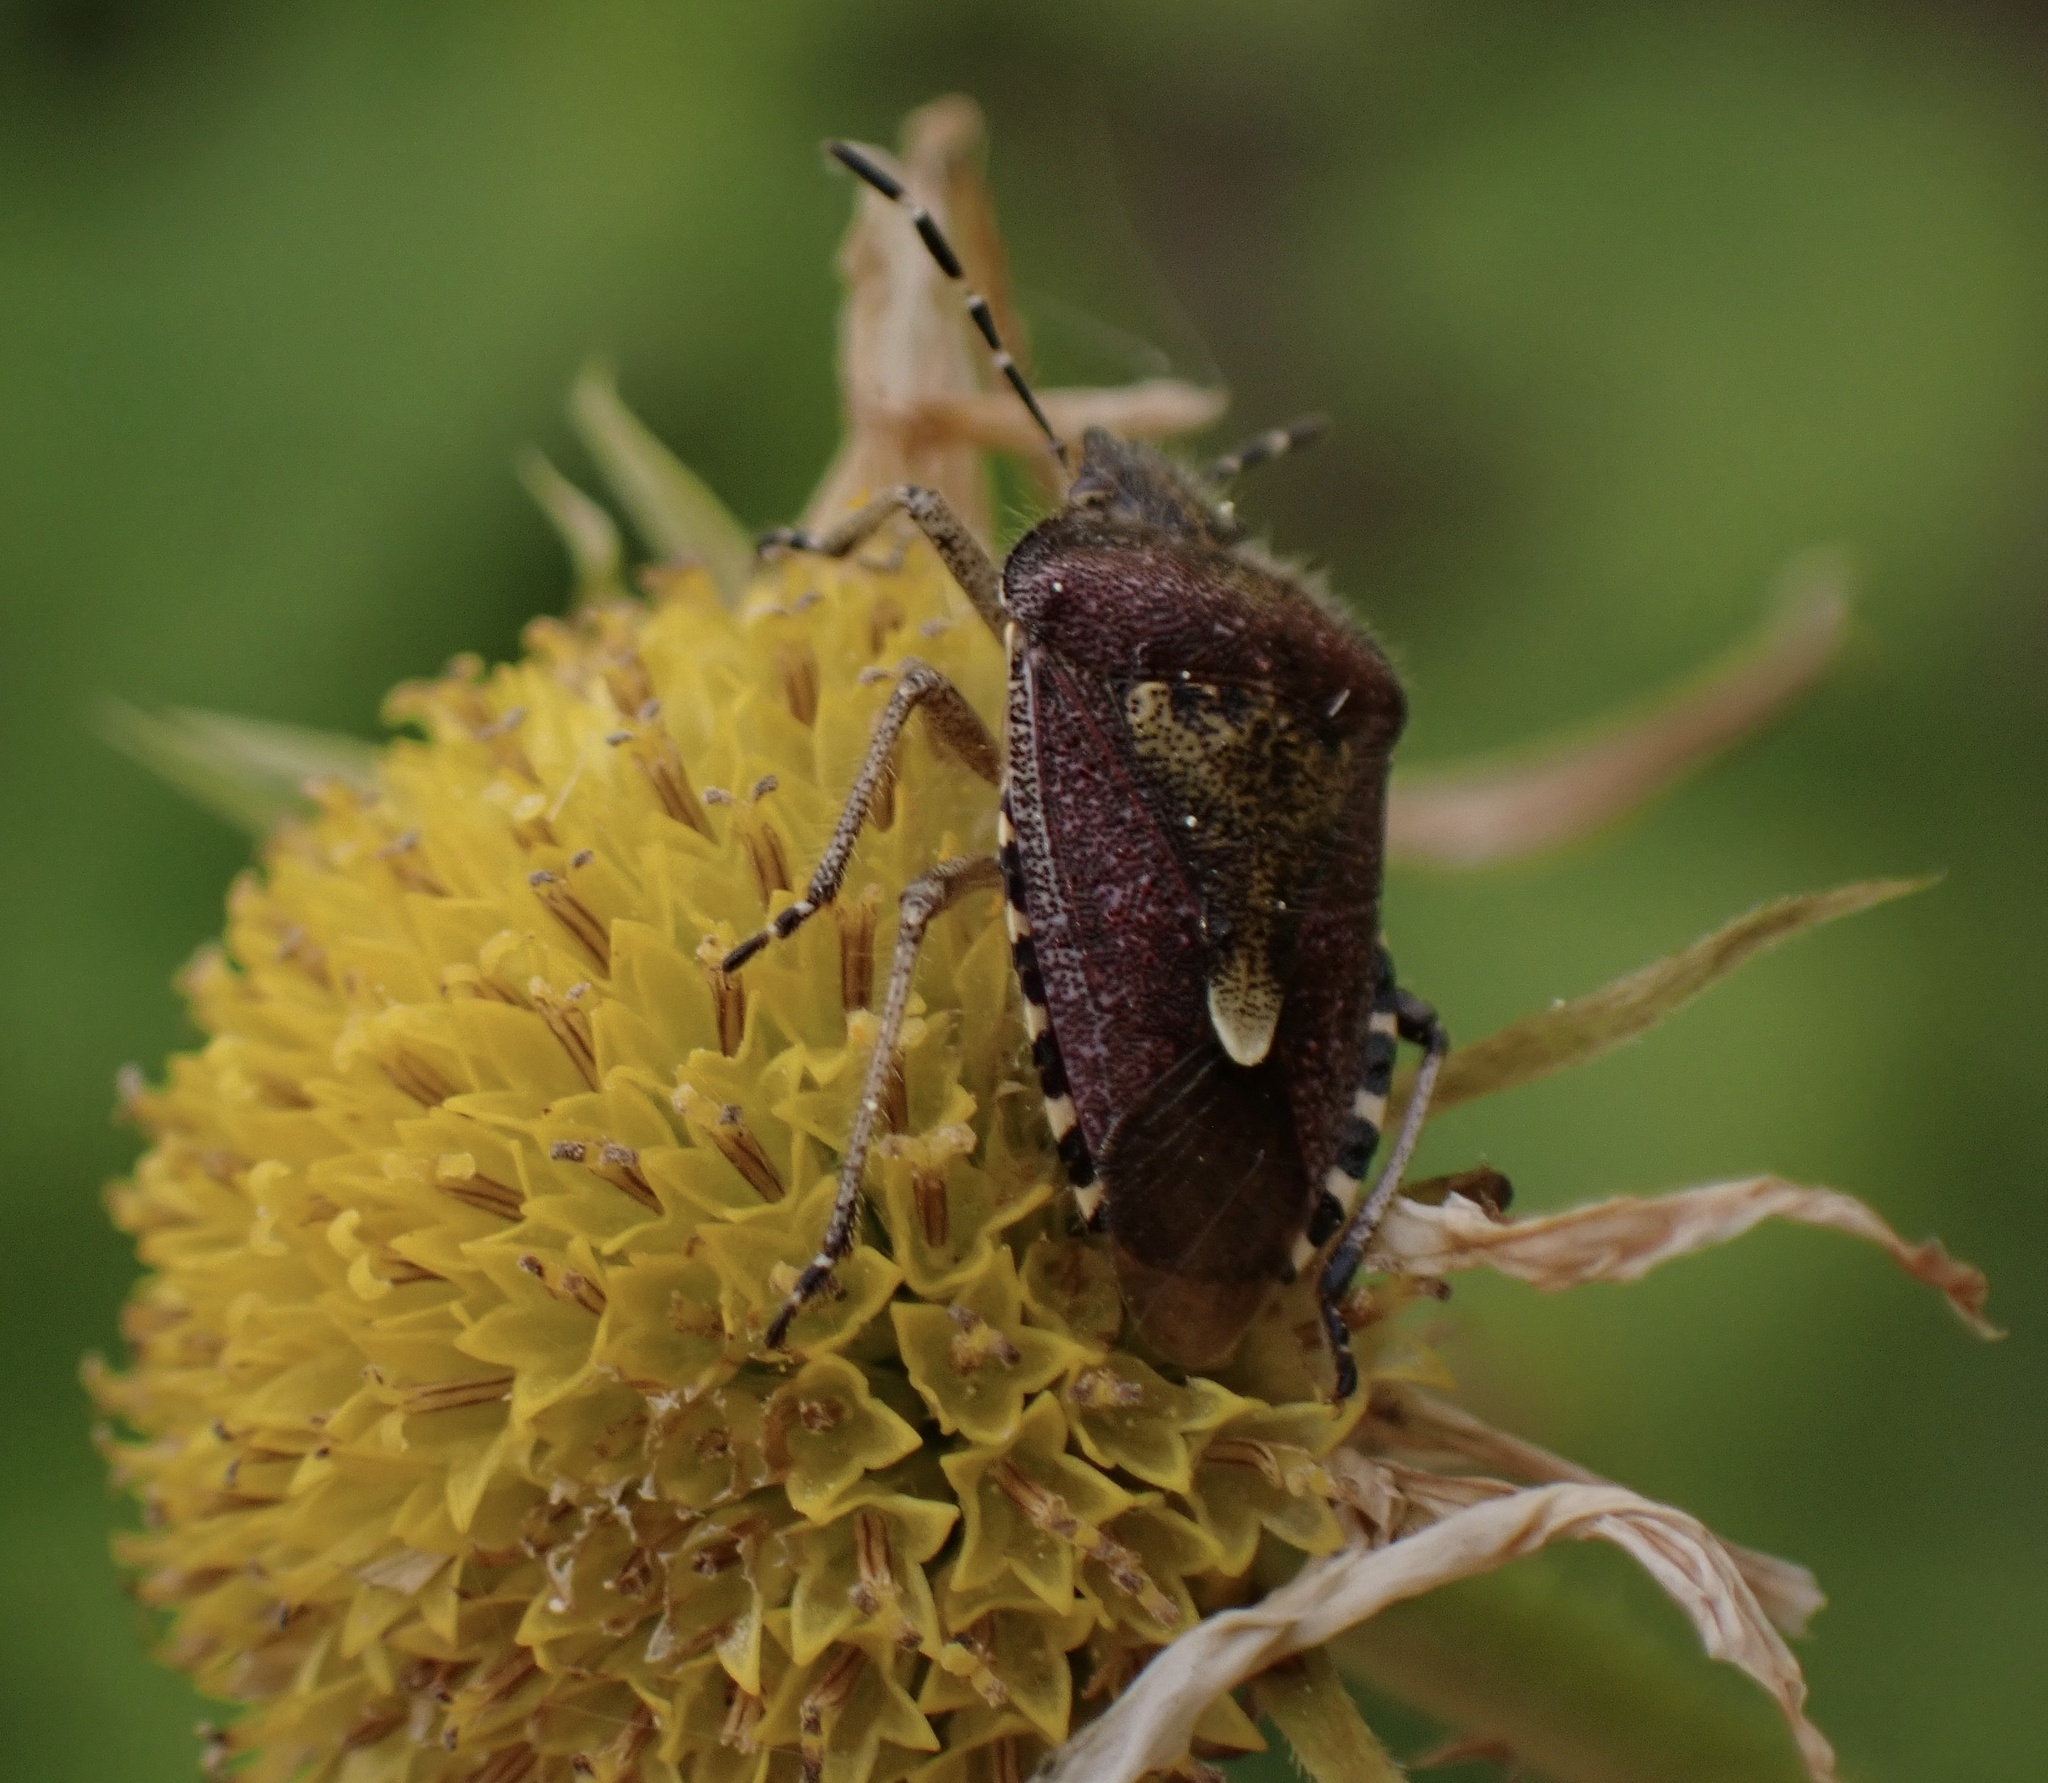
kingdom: Animalia
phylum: Arthropoda
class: Insecta
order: Hemiptera
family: Pentatomidae
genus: Dolycoris
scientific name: Dolycoris baccarum
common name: Sloe bug
